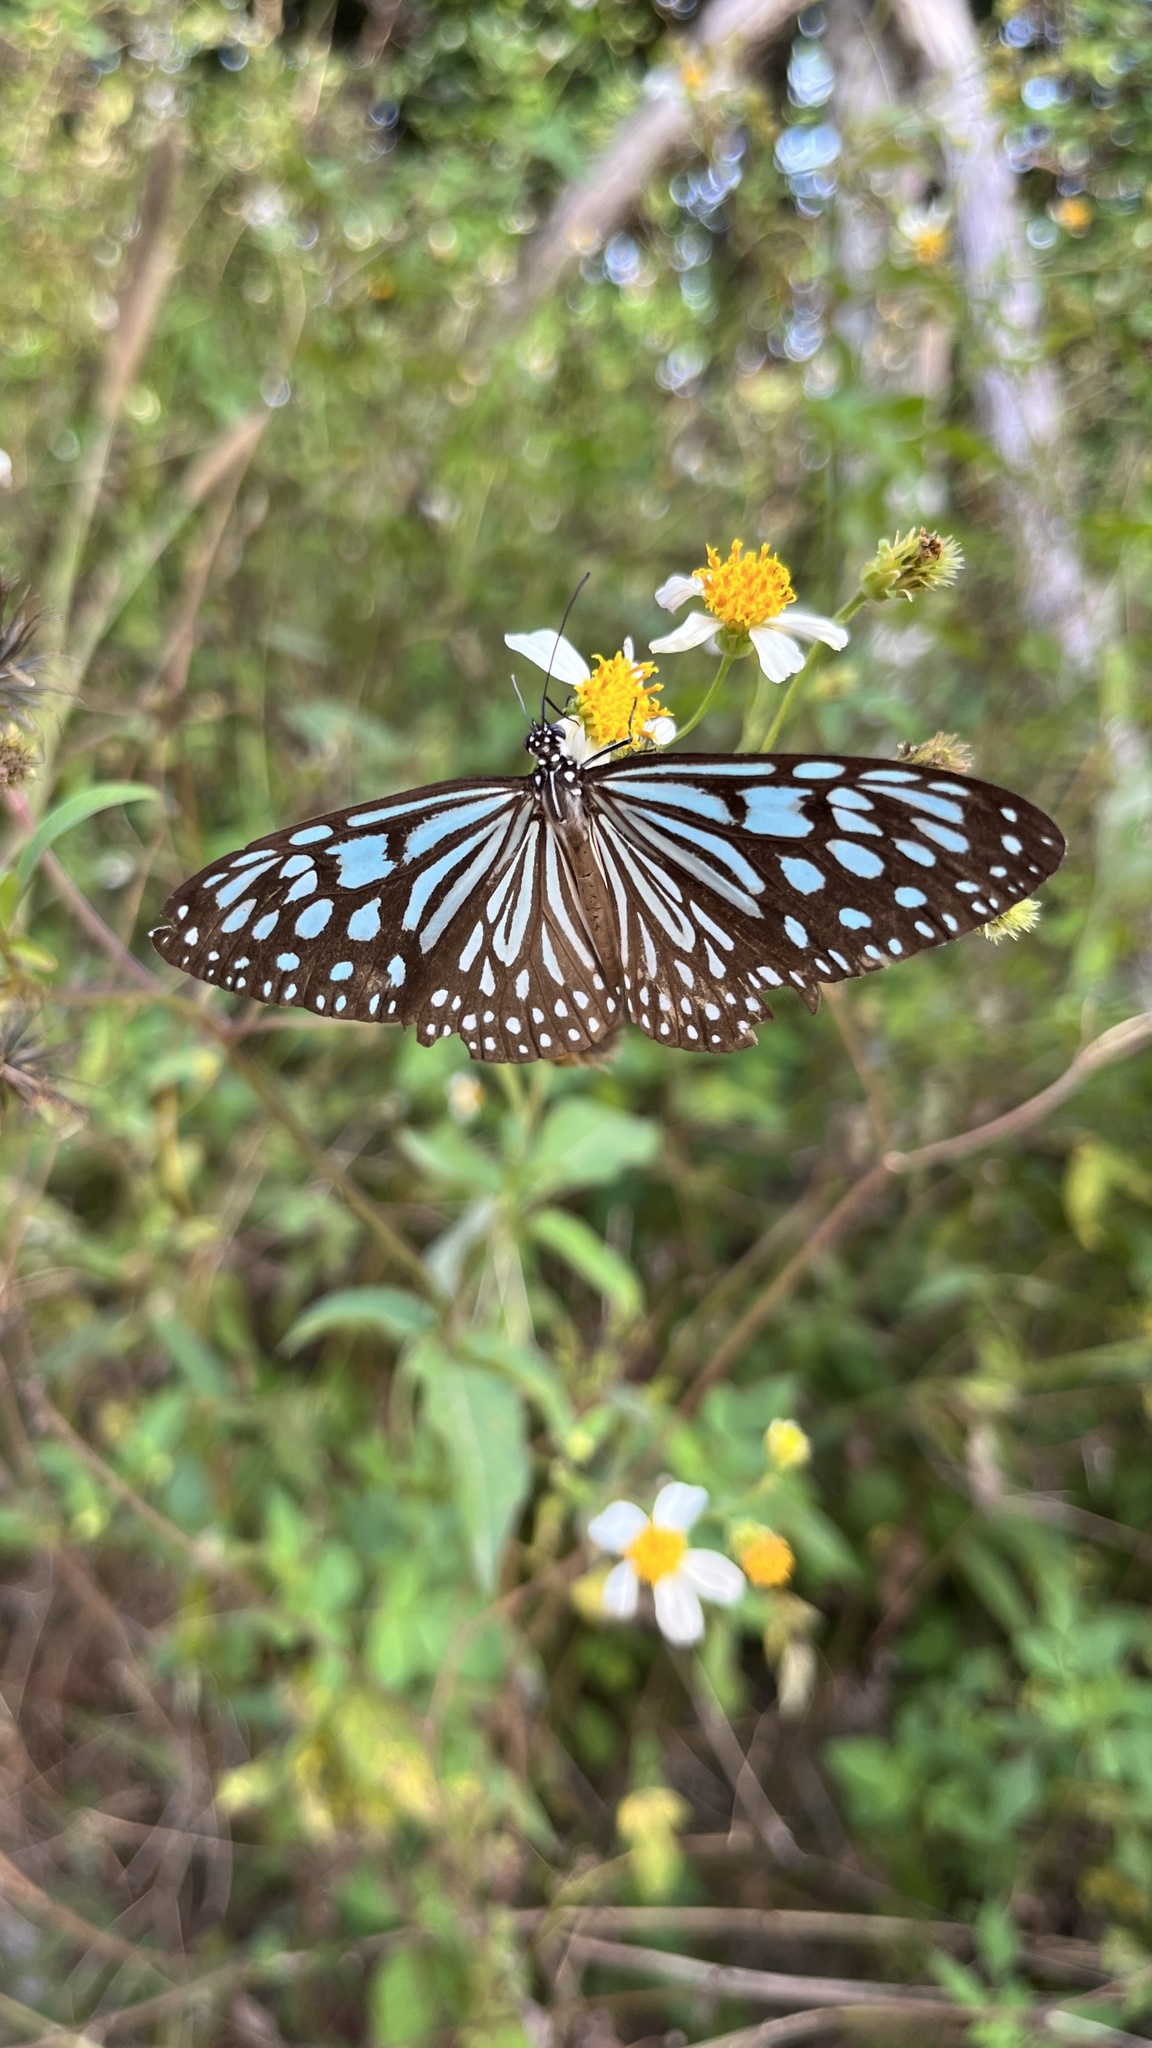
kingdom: Animalia
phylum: Arthropoda
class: Insecta
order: Lepidoptera
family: Nymphalidae
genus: Ideopsis
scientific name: Ideopsis similis
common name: Ceylon blue glassy tiger
